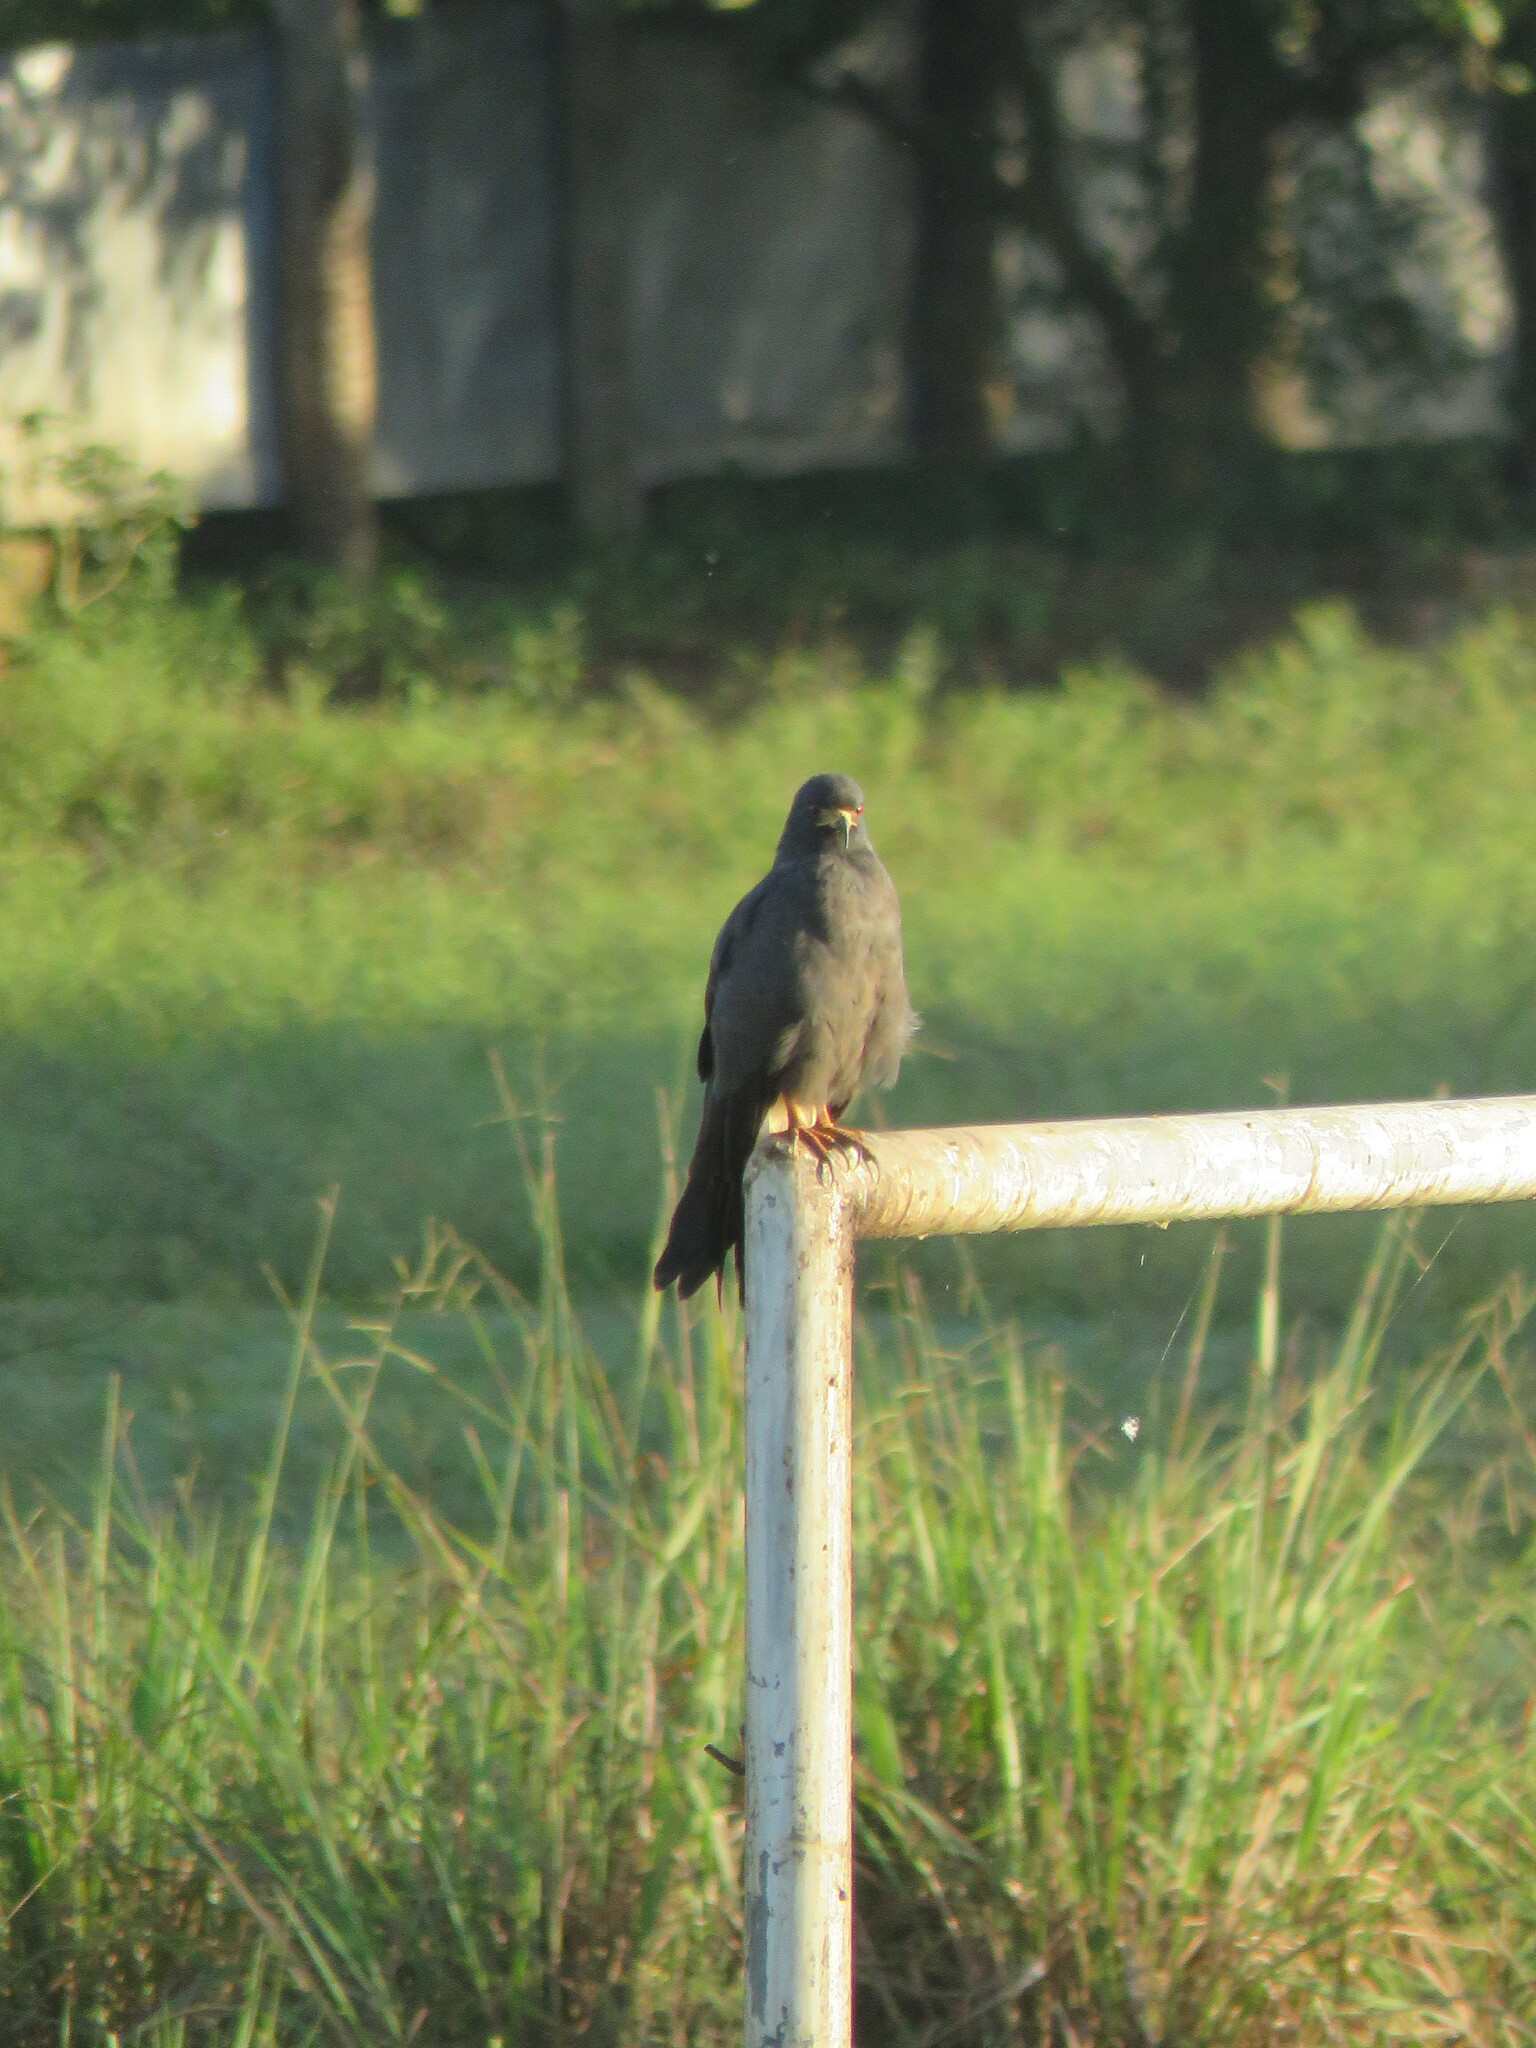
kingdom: Animalia
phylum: Chordata
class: Aves
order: Accipitriformes
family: Accipitridae
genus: Rostrhamus
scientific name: Rostrhamus sociabilis
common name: Snail kite
